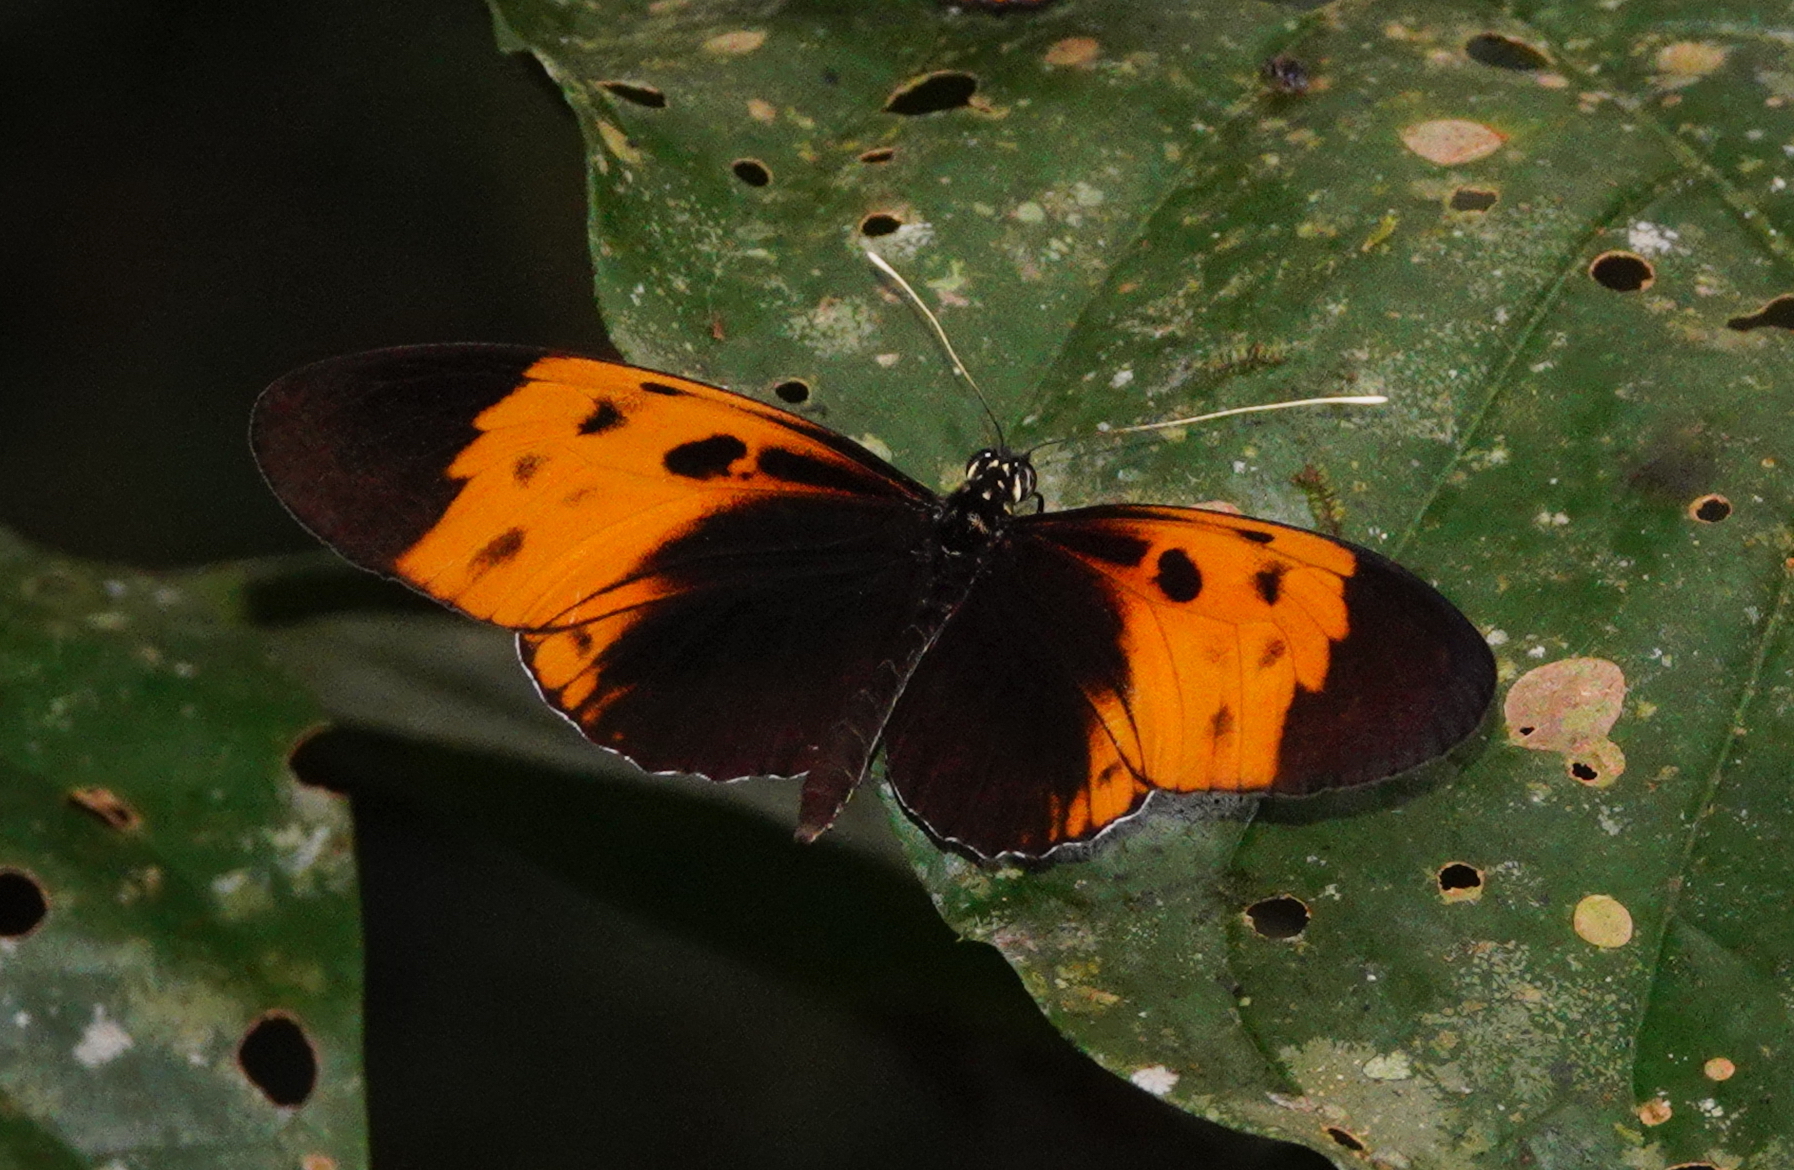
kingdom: Animalia
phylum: Arthropoda
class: Insecta
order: Lepidoptera
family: Nymphalidae
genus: Heliconius
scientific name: Heliconius numatus
